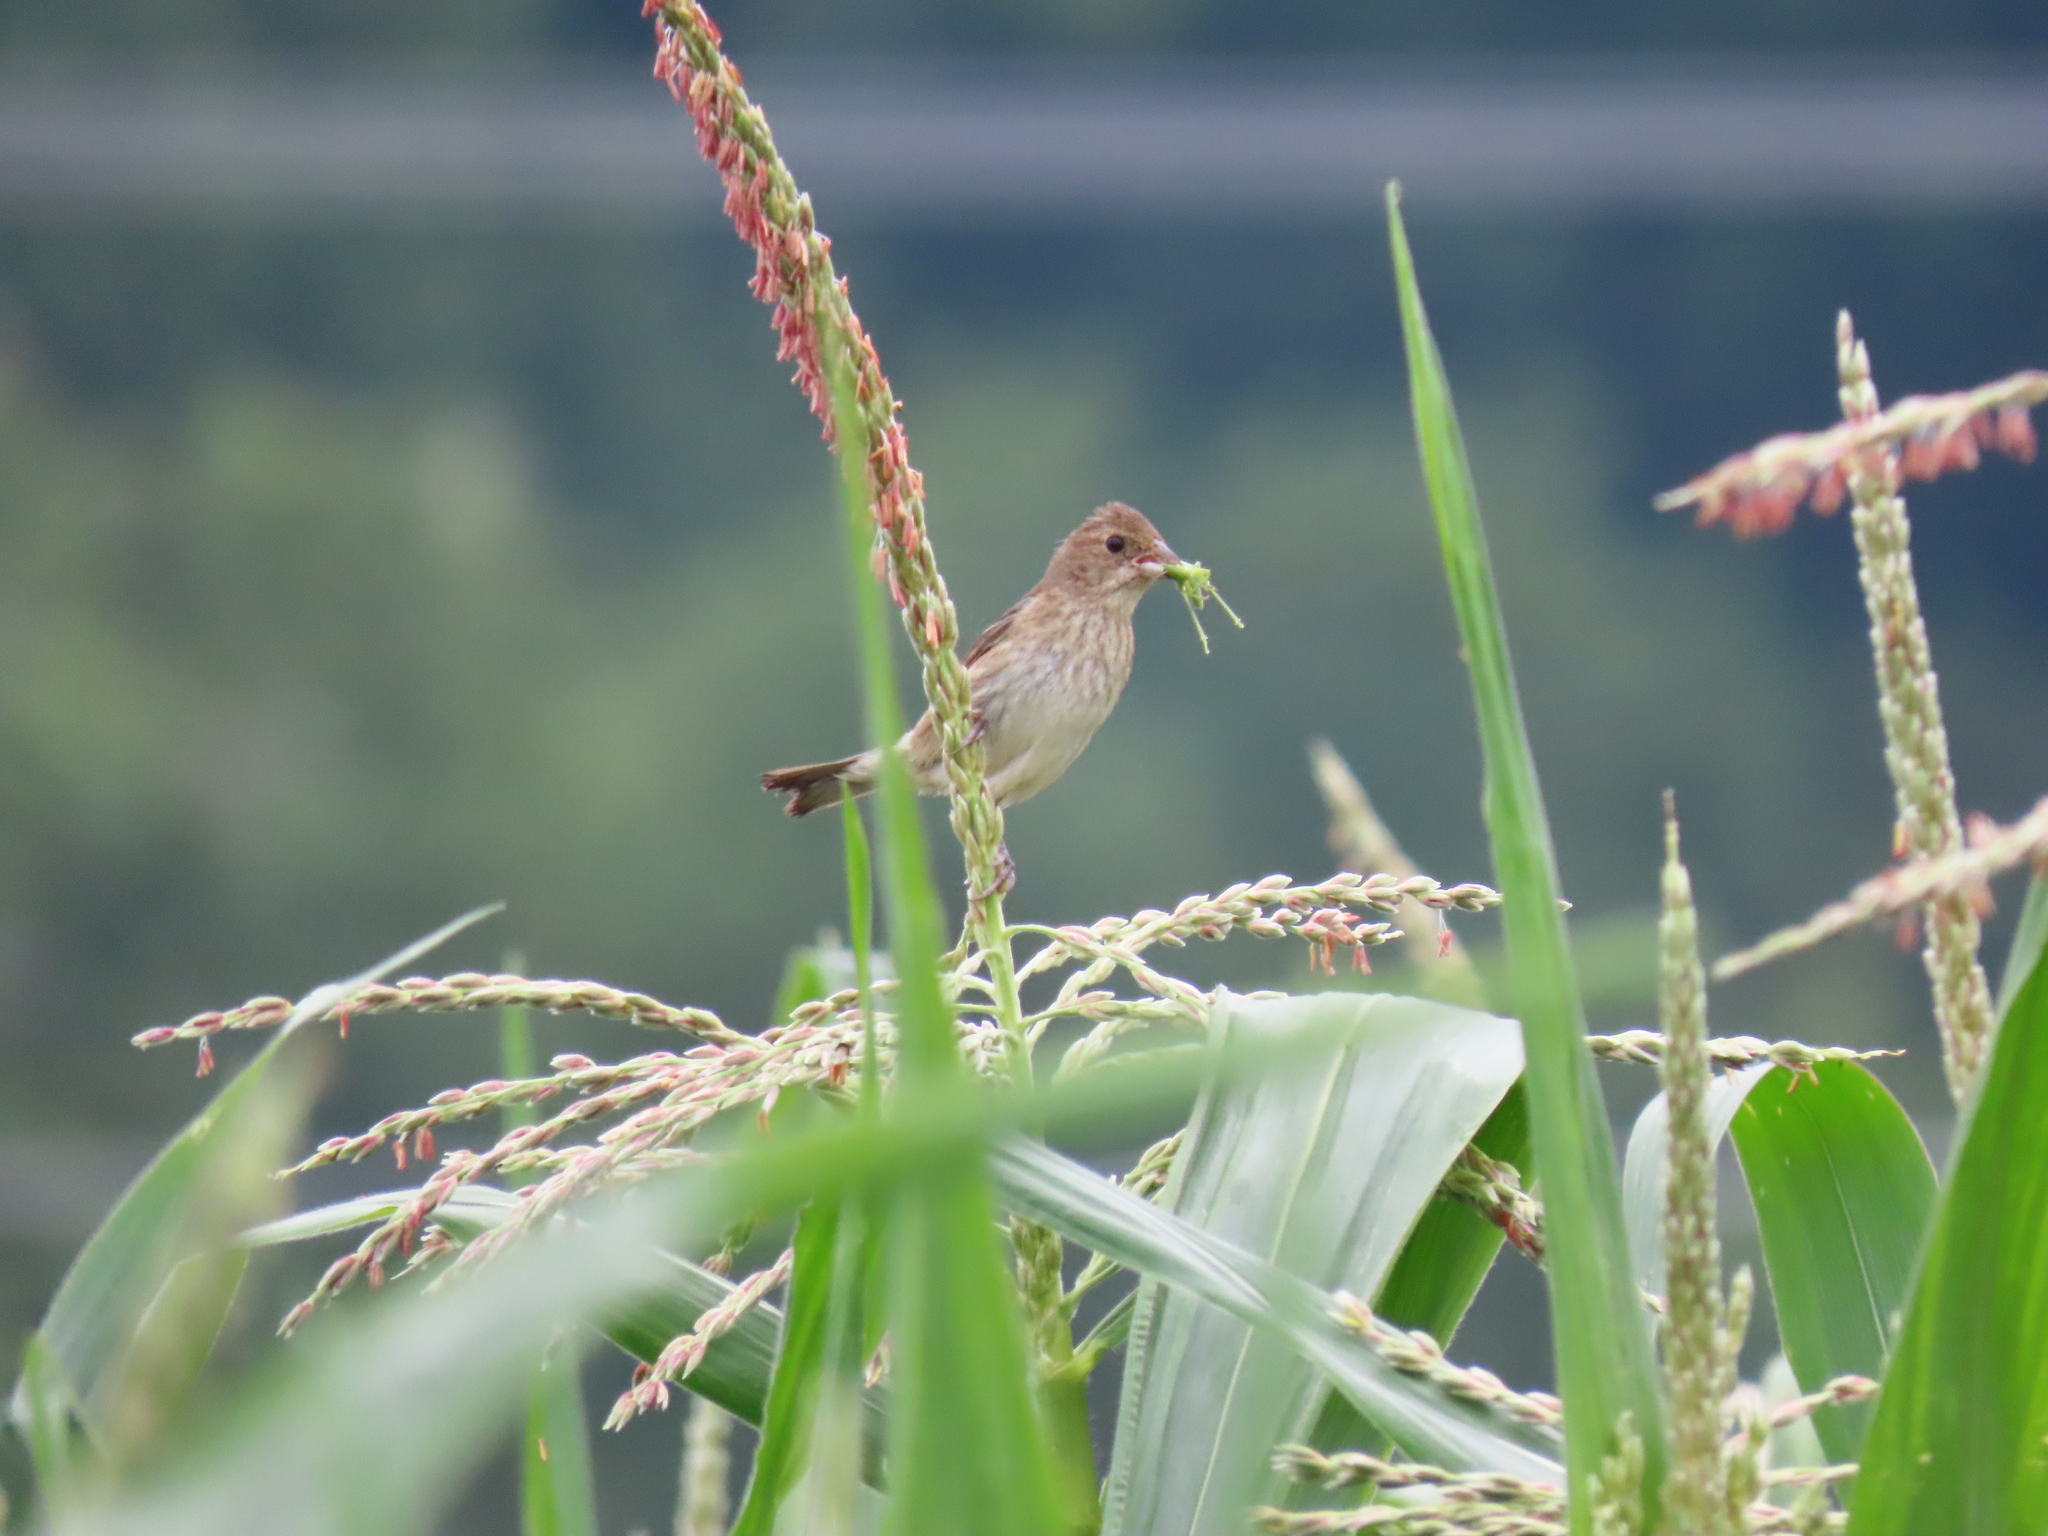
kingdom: Animalia
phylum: Chordata
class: Aves
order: Passeriformes
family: Cardinalidae
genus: Passerina
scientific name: Passerina cyanea
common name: Indigo bunting
